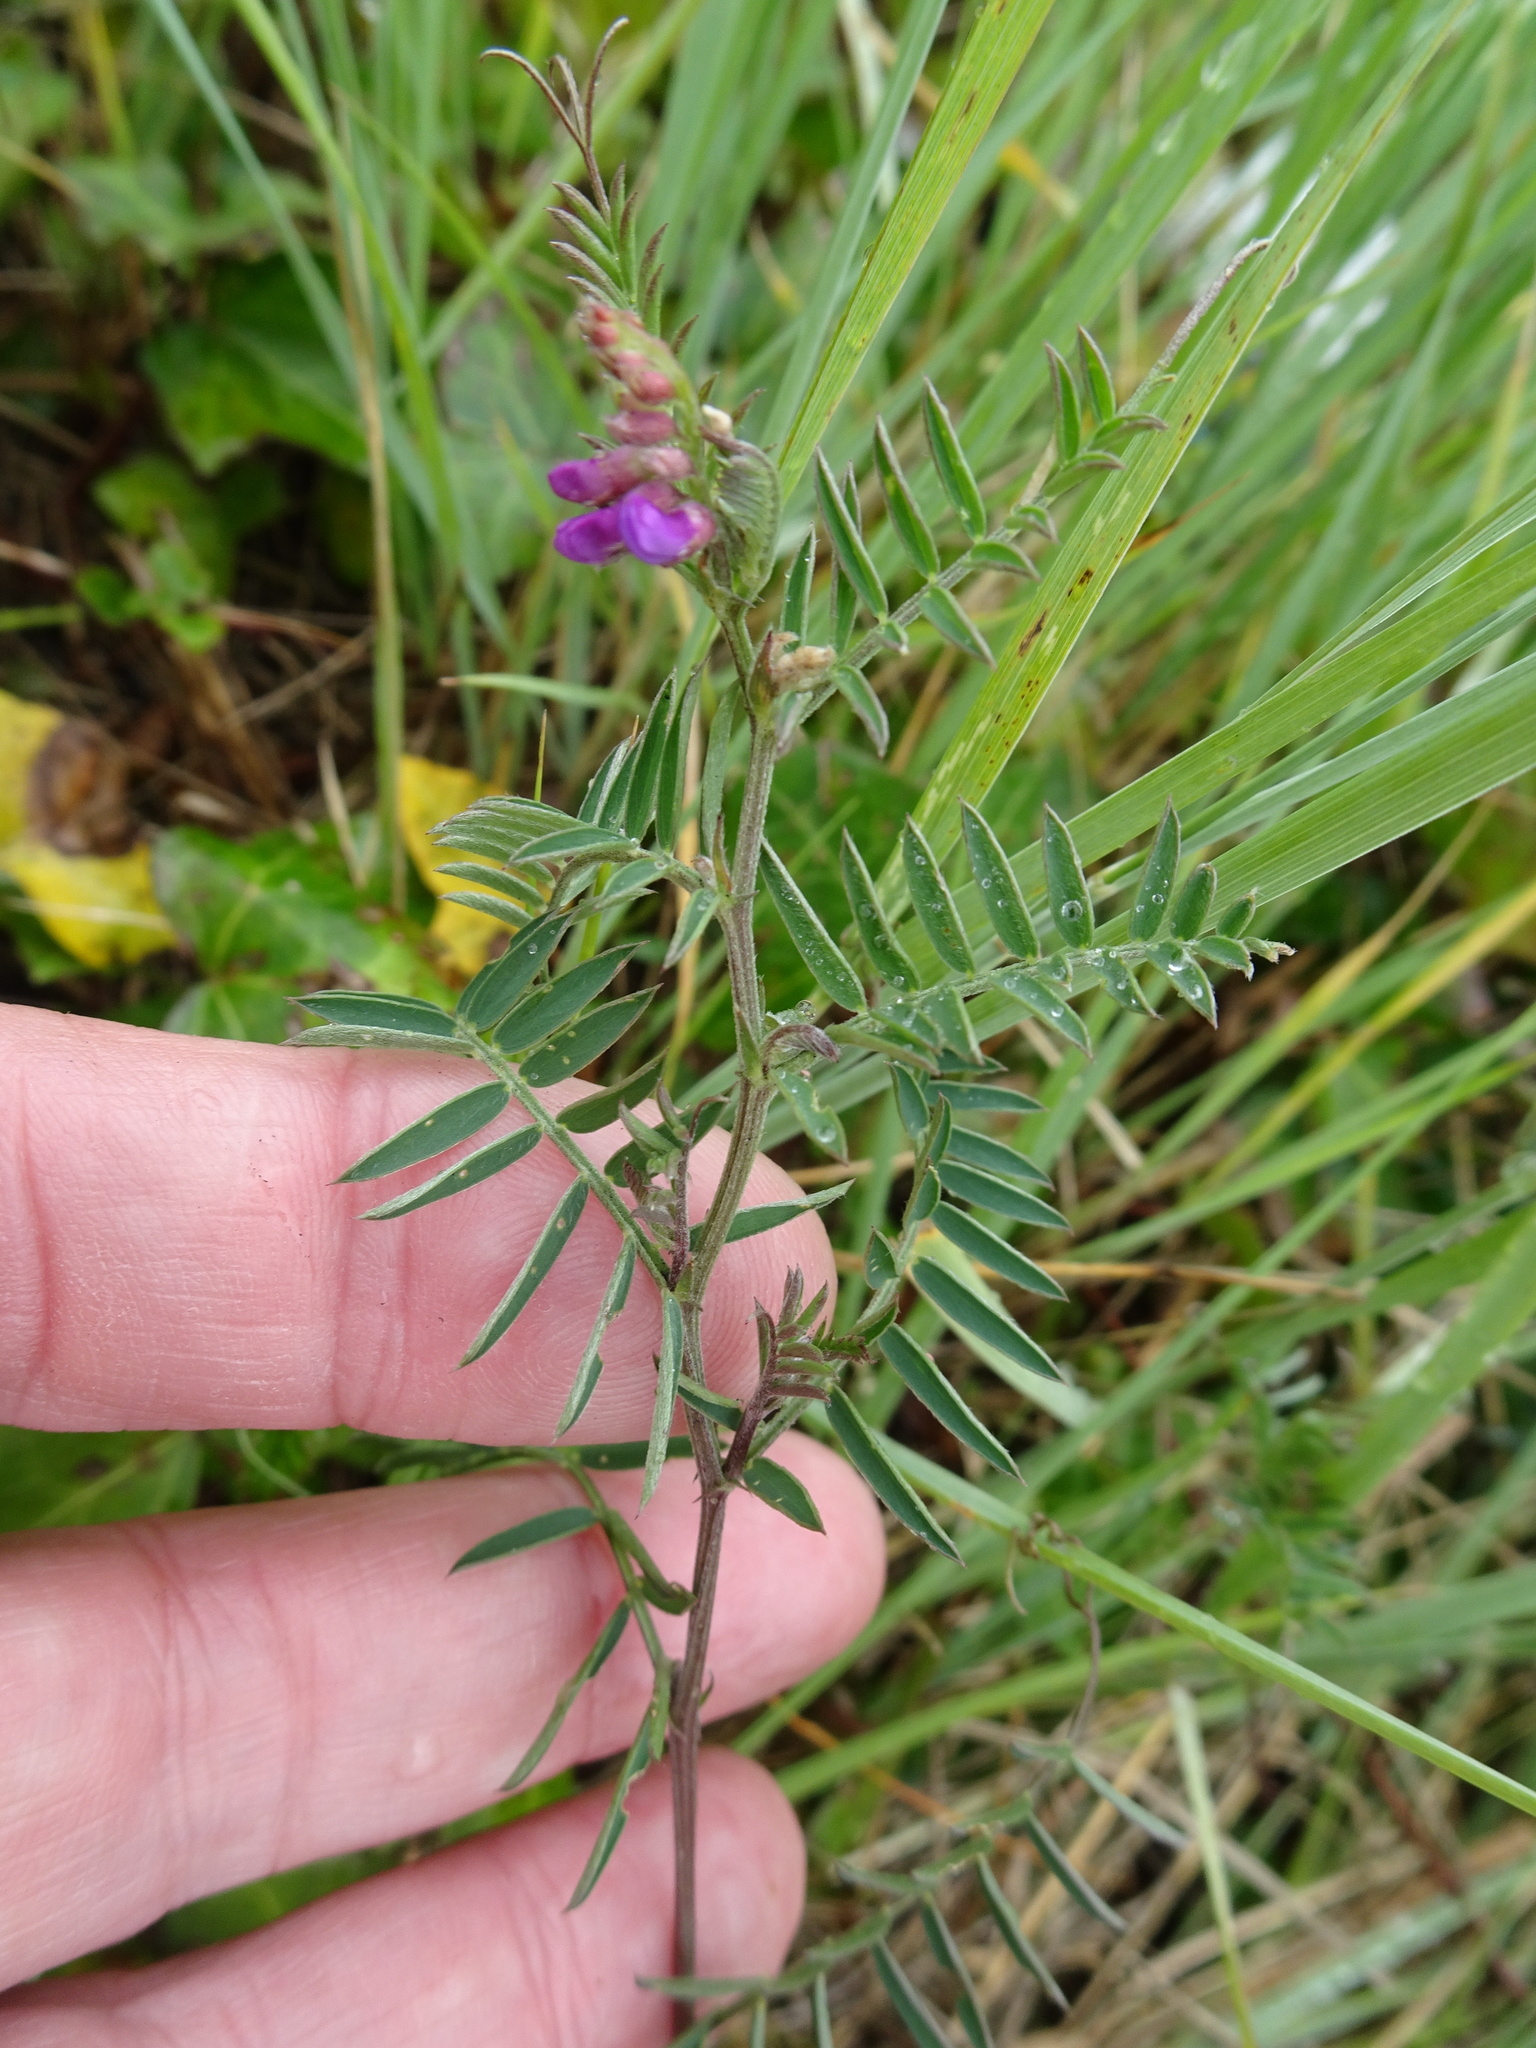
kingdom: Plantae
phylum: Tracheophyta
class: Magnoliopsida
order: Fabales
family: Fabaceae
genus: Vicia
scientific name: Vicia cracca
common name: Bird vetch
